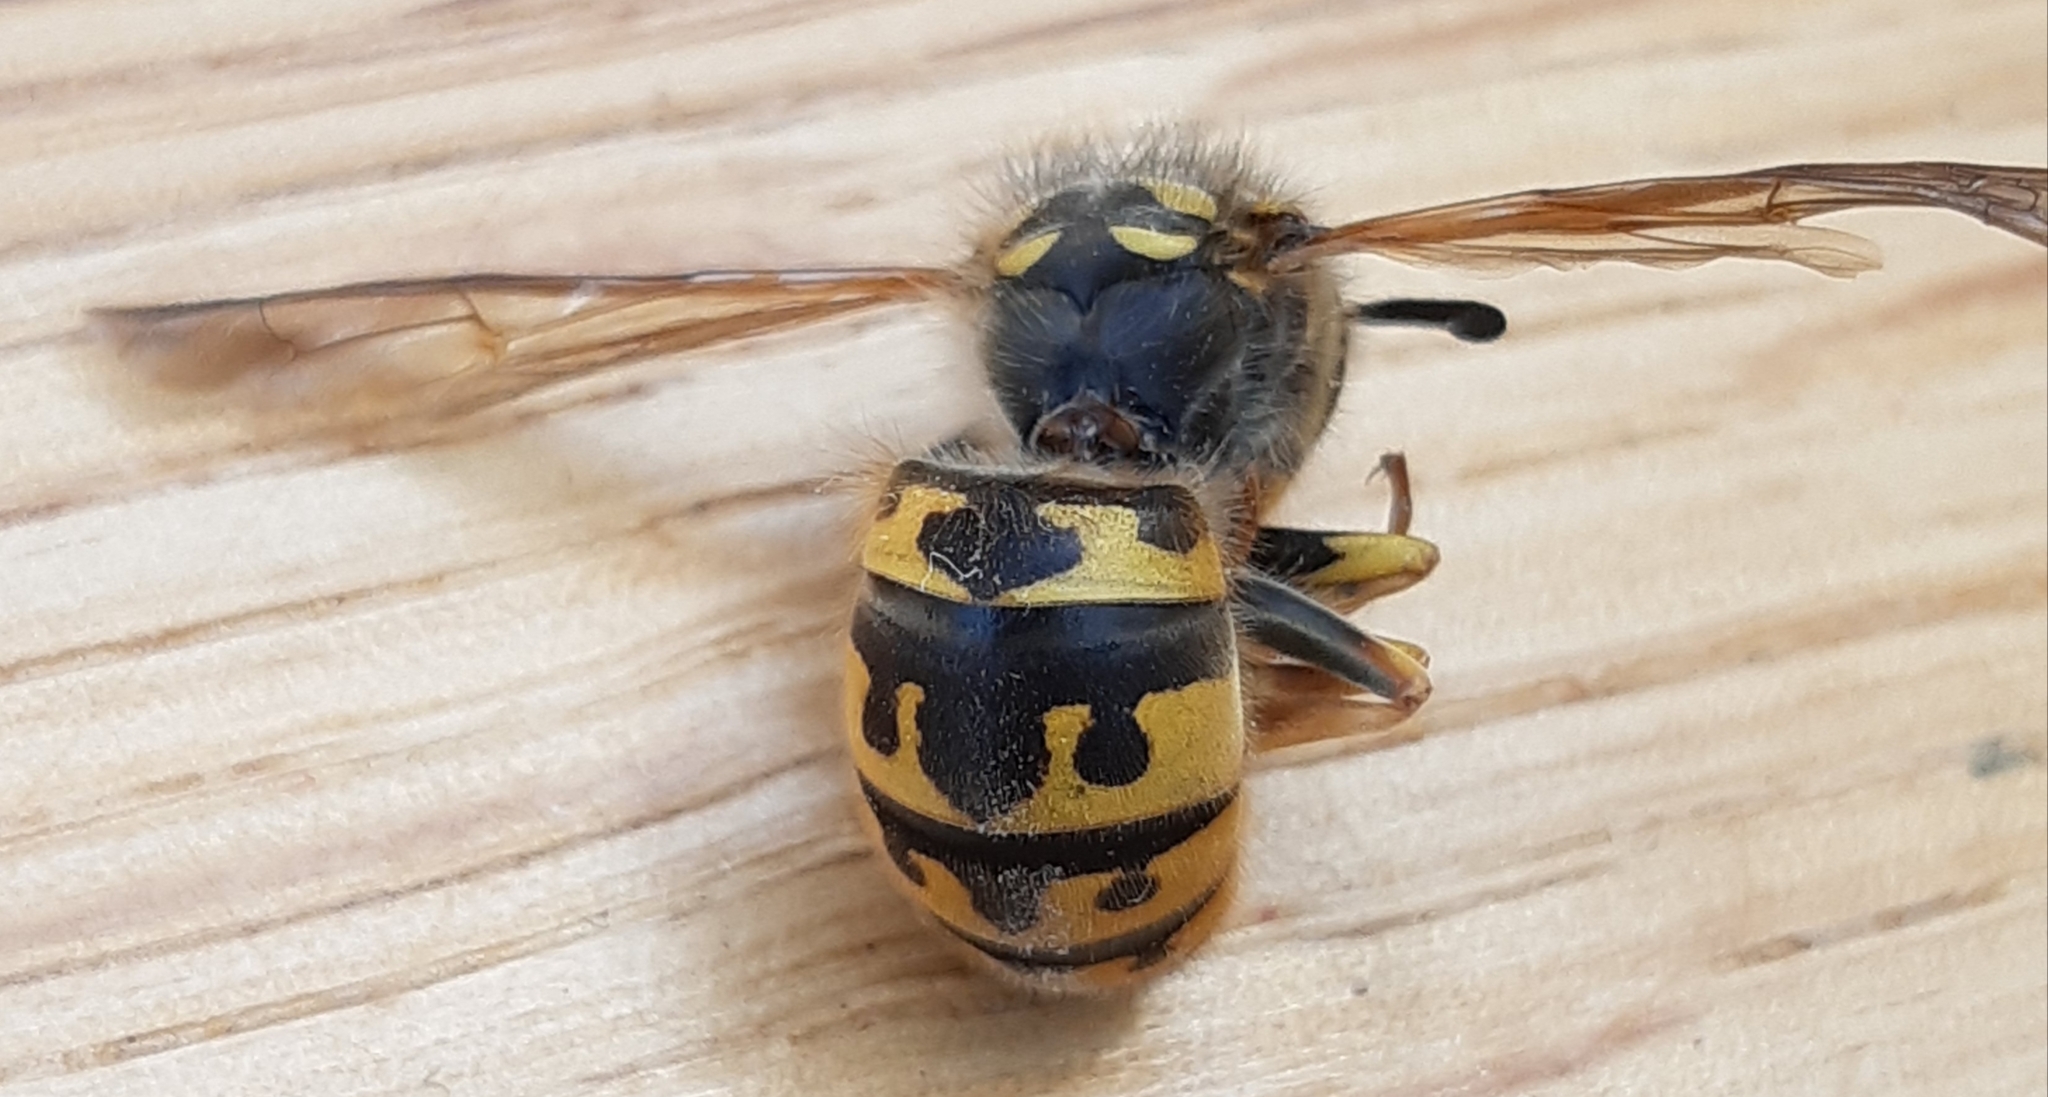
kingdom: Animalia
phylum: Arthropoda
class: Insecta
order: Hymenoptera
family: Vespidae
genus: Vespula
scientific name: Vespula germanica
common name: German wasp
